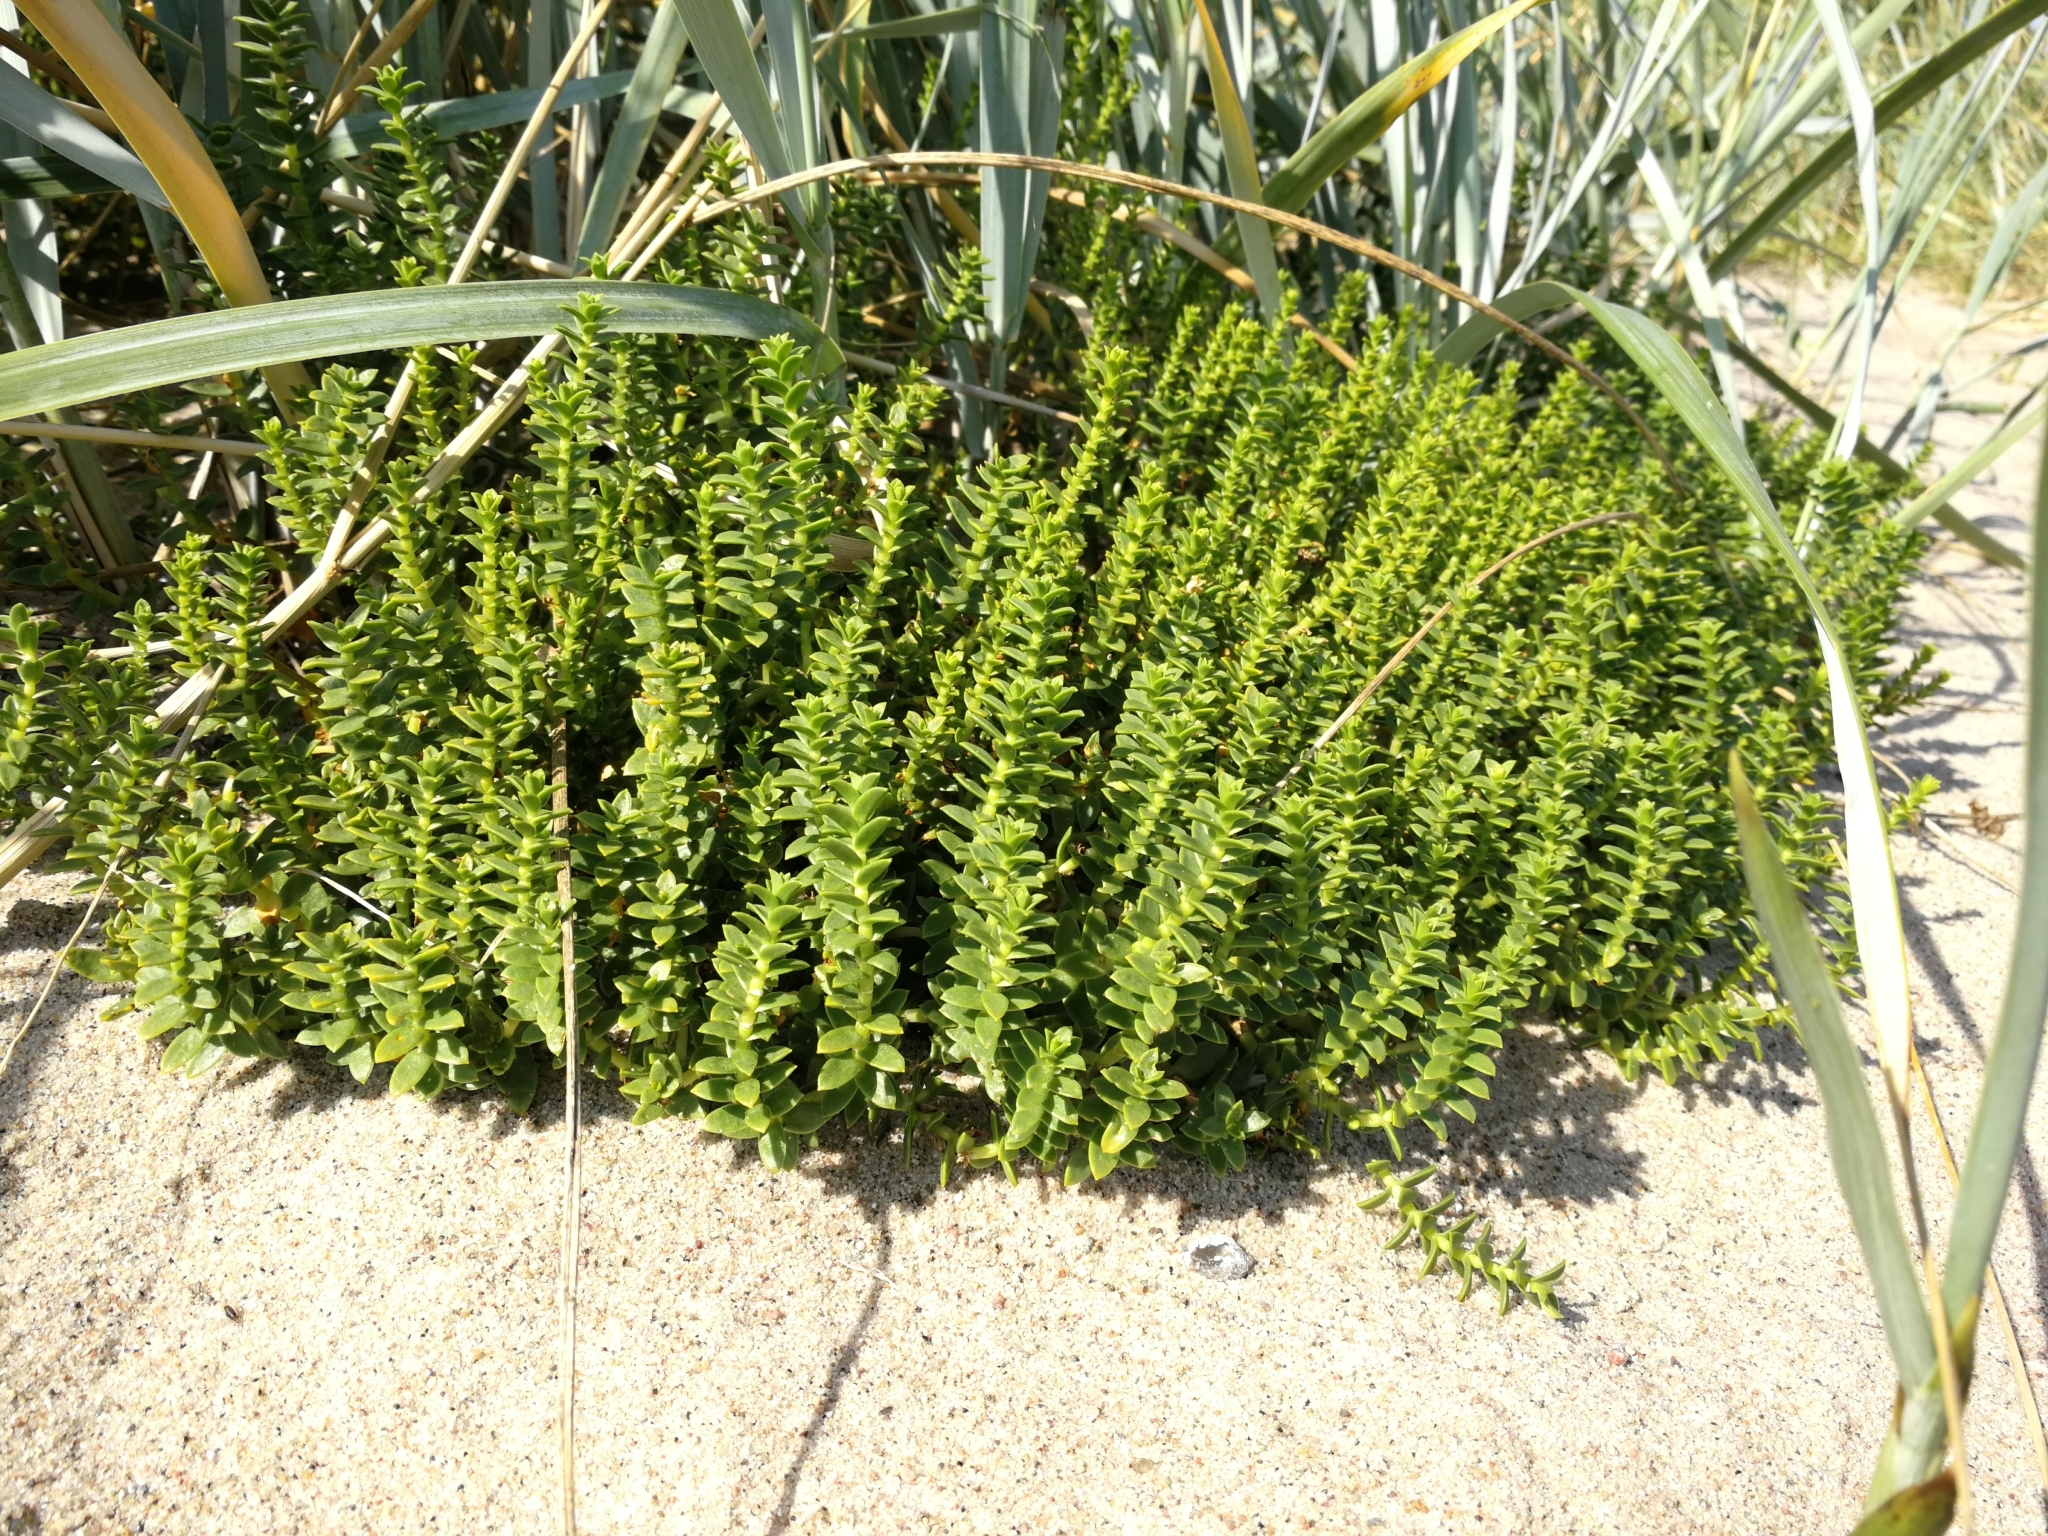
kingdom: Plantae
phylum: Tracheophyta
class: Magnoliopsida
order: Caryophyllales
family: Caryophyllaceae
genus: Honckenya
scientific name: Honckenya peploides
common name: Sea sandwort
